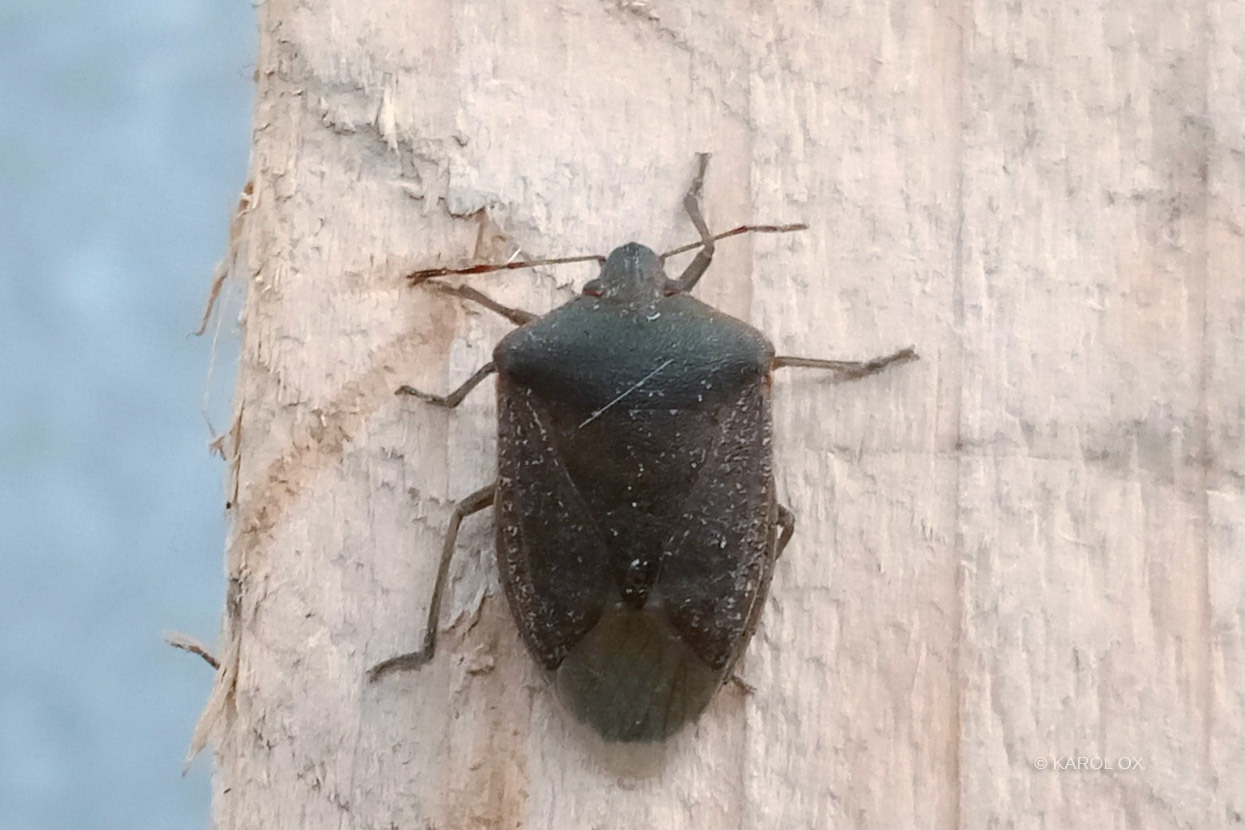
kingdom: Animalia
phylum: Arthropoda
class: Insecta
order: Hemiptera
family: Pentatomidae
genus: Nezara
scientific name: Nezara viridula
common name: Southern green stink bug
